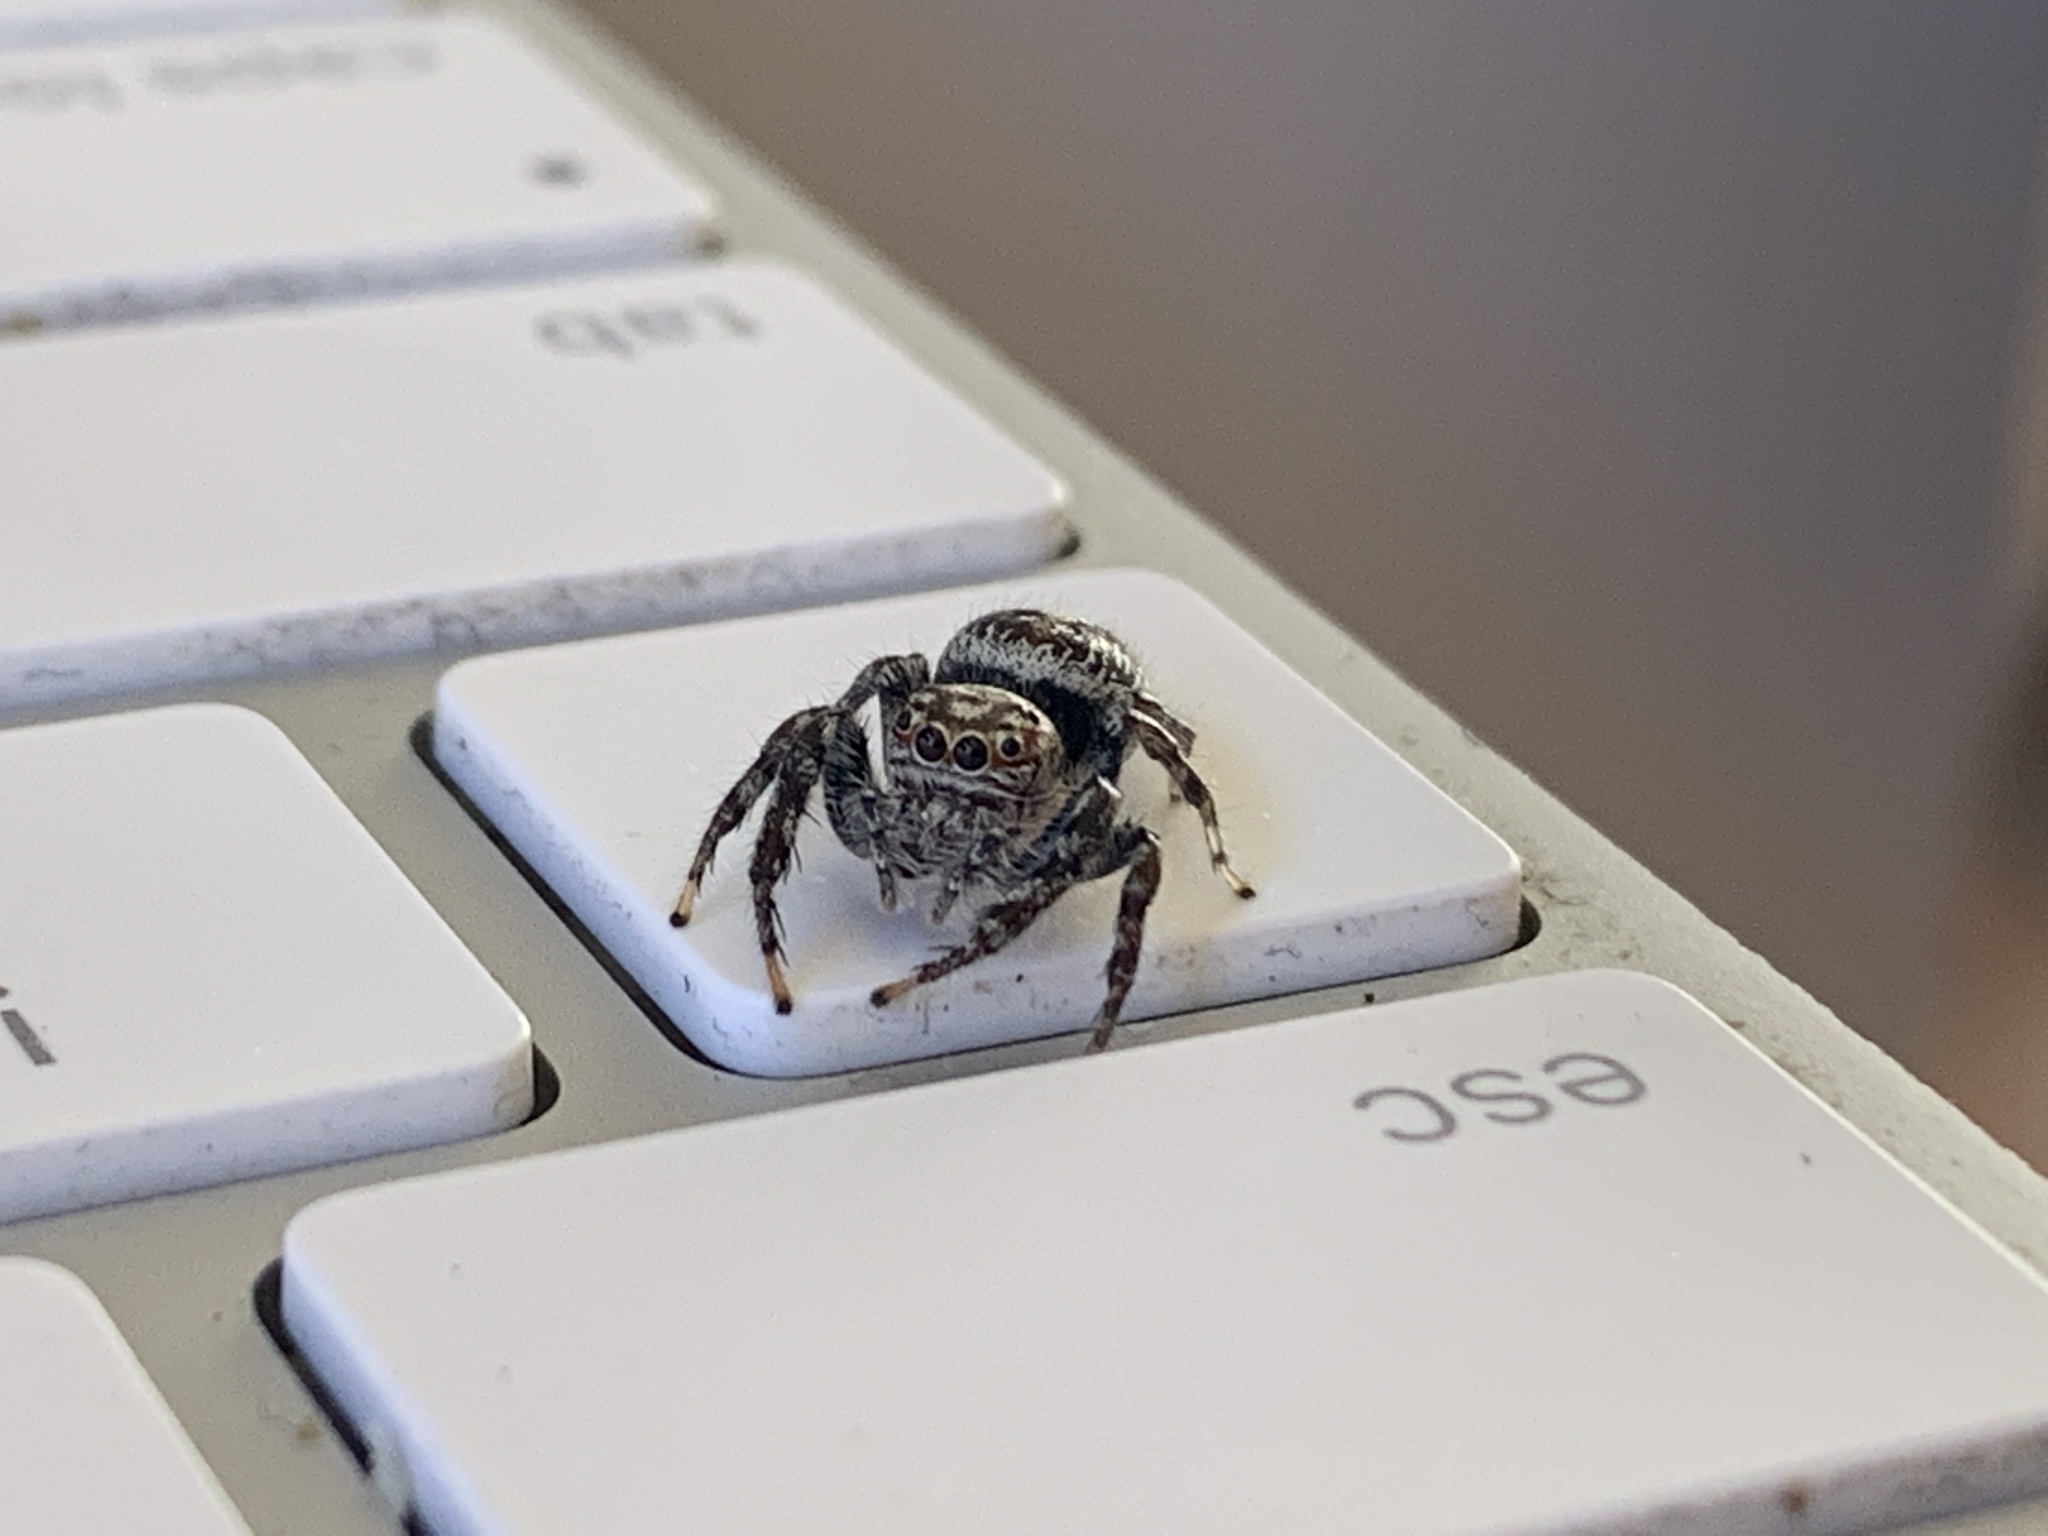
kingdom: Animalia
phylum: Arthropoda
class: Arachnida
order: Araneae
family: Salticidae
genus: Opisthoncus
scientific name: Opisthoncus quadratarius
